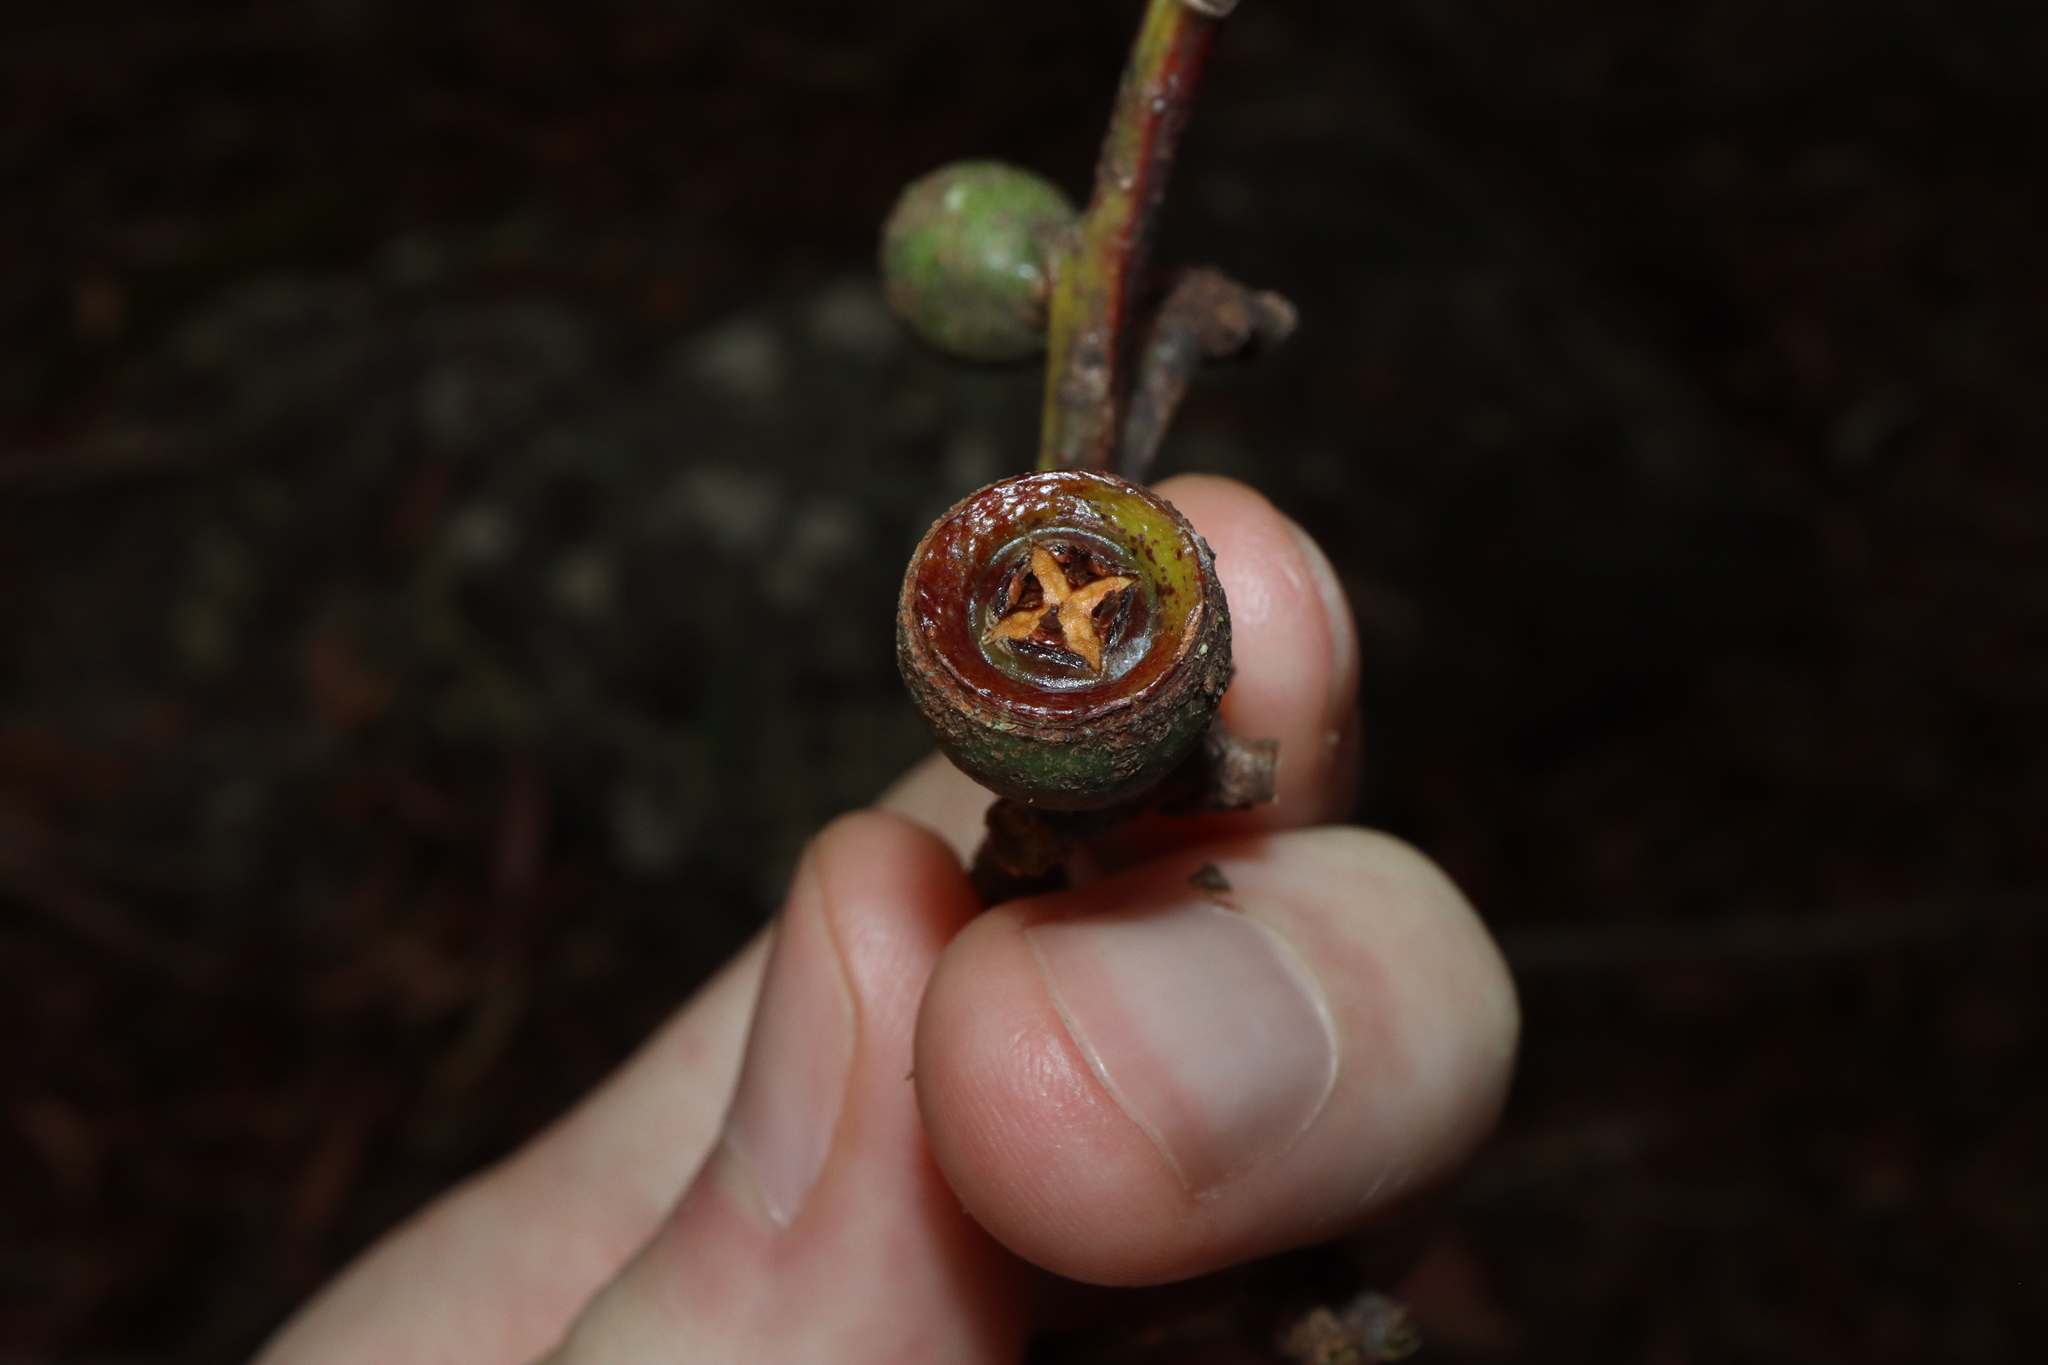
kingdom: Plantae
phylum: Tracheophyta
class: Magnoliopsida
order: Myrtales
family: Myrtaceae
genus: Eucalyptus
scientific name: Eucalyptus pilularis
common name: Blackbutt
